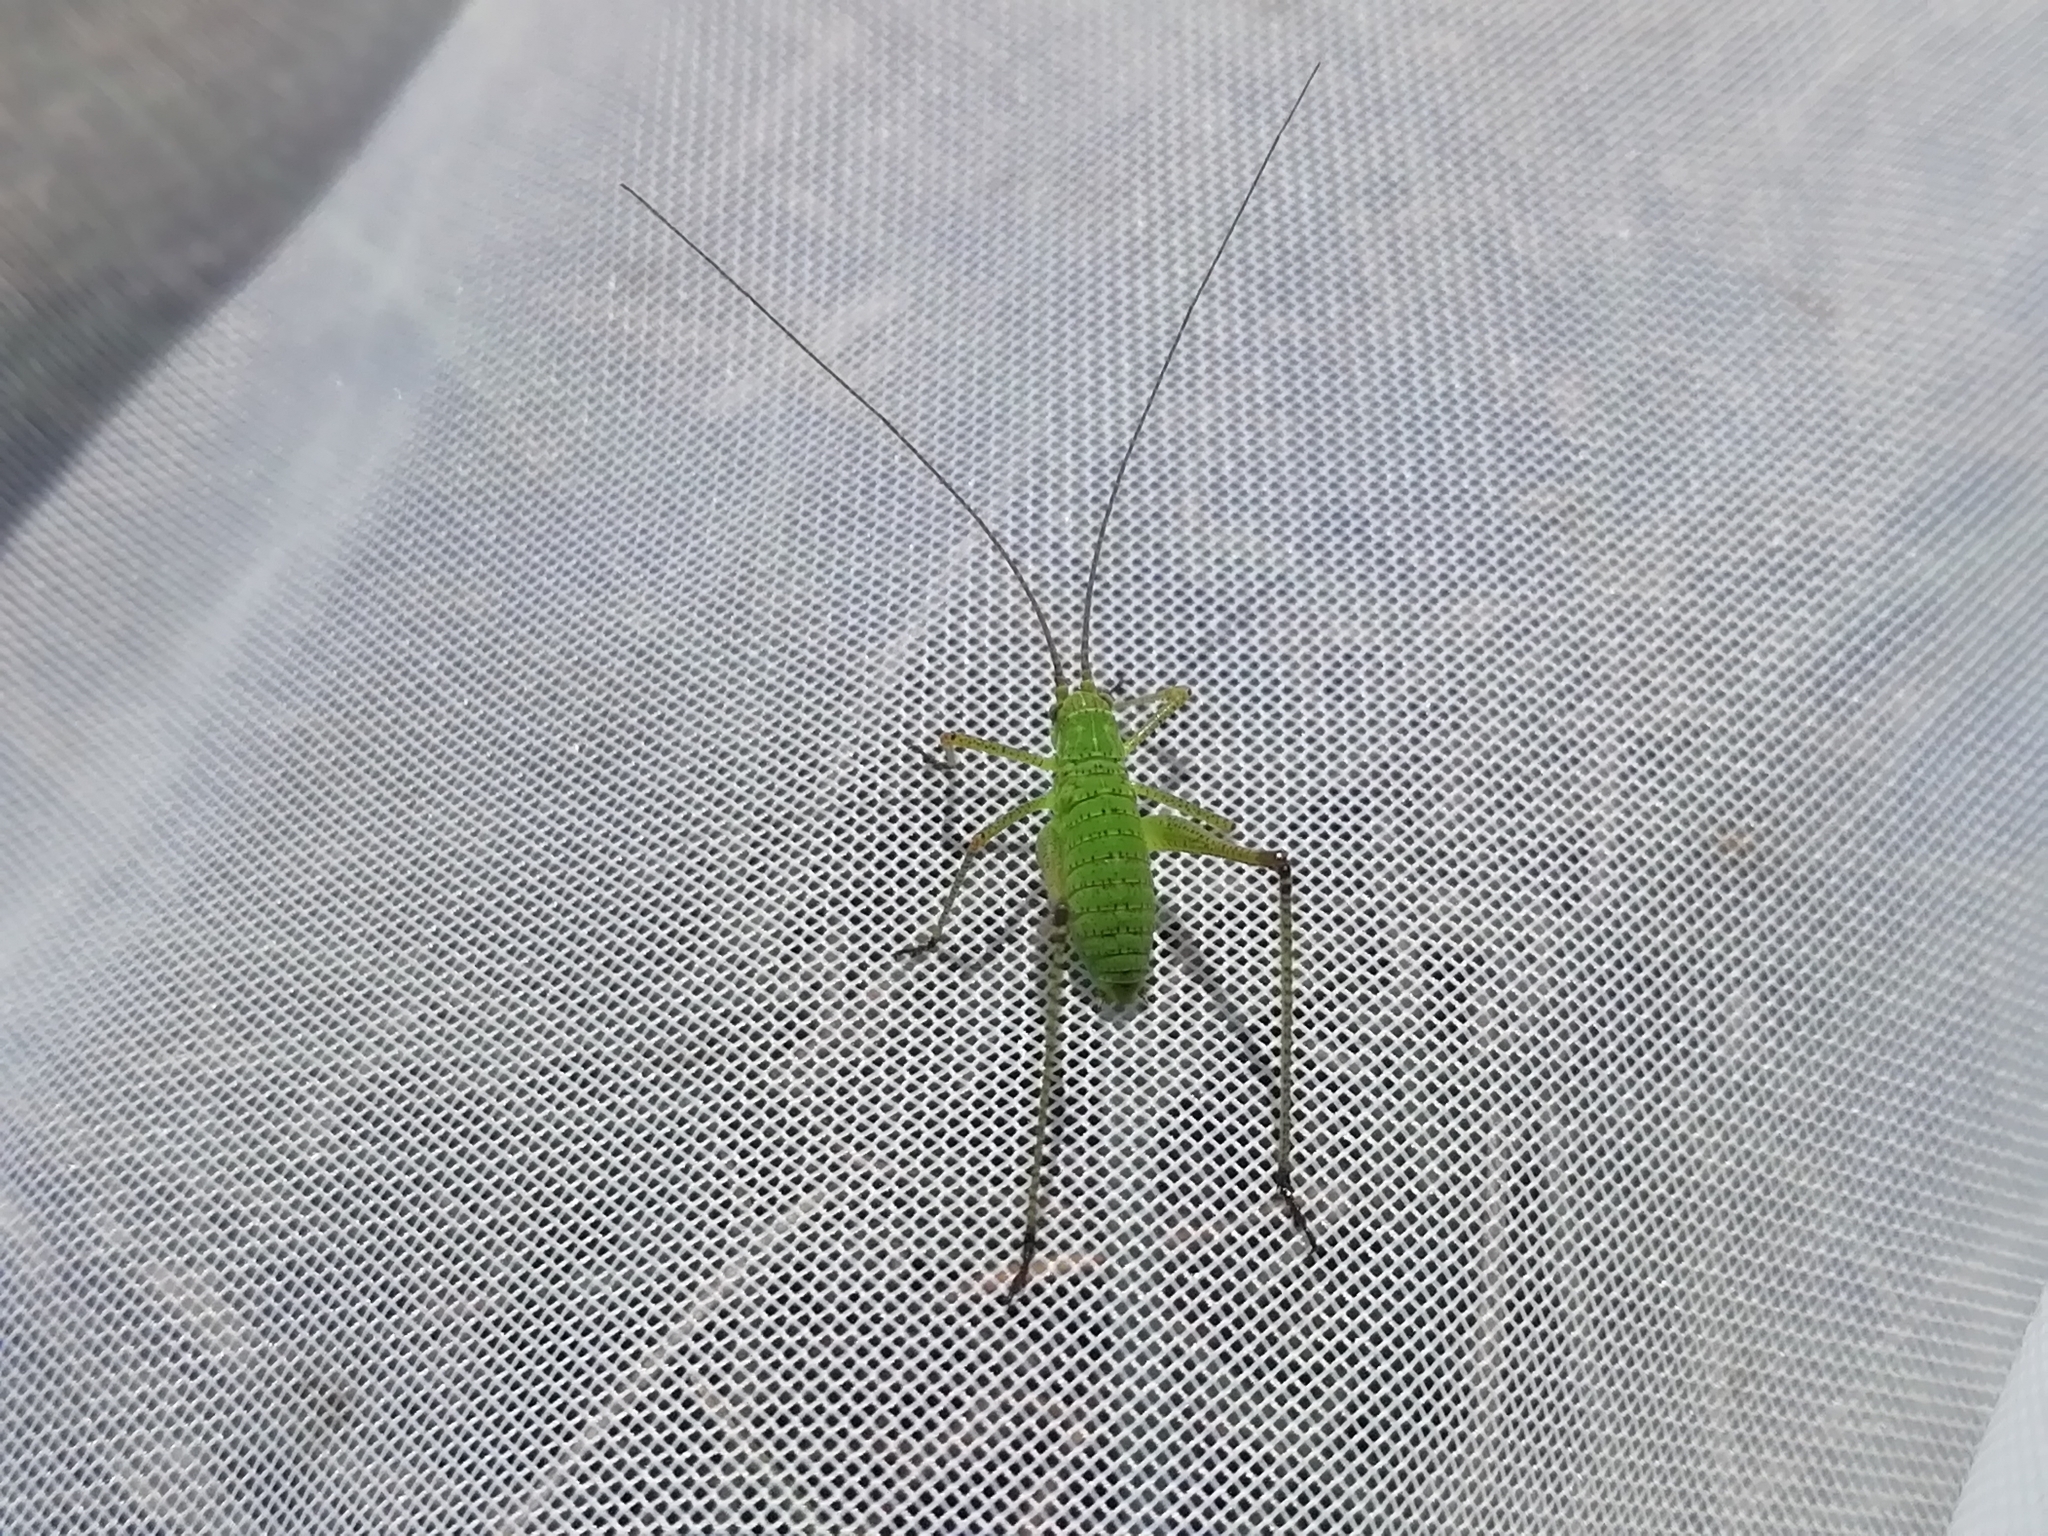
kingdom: Animalia
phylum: Arthropoda
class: Insecta
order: Orthoptera
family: Tettigoniidae
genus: Phaneroptera
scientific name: Phaneroptera falcata
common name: Sickle-bearing bush-cricket
